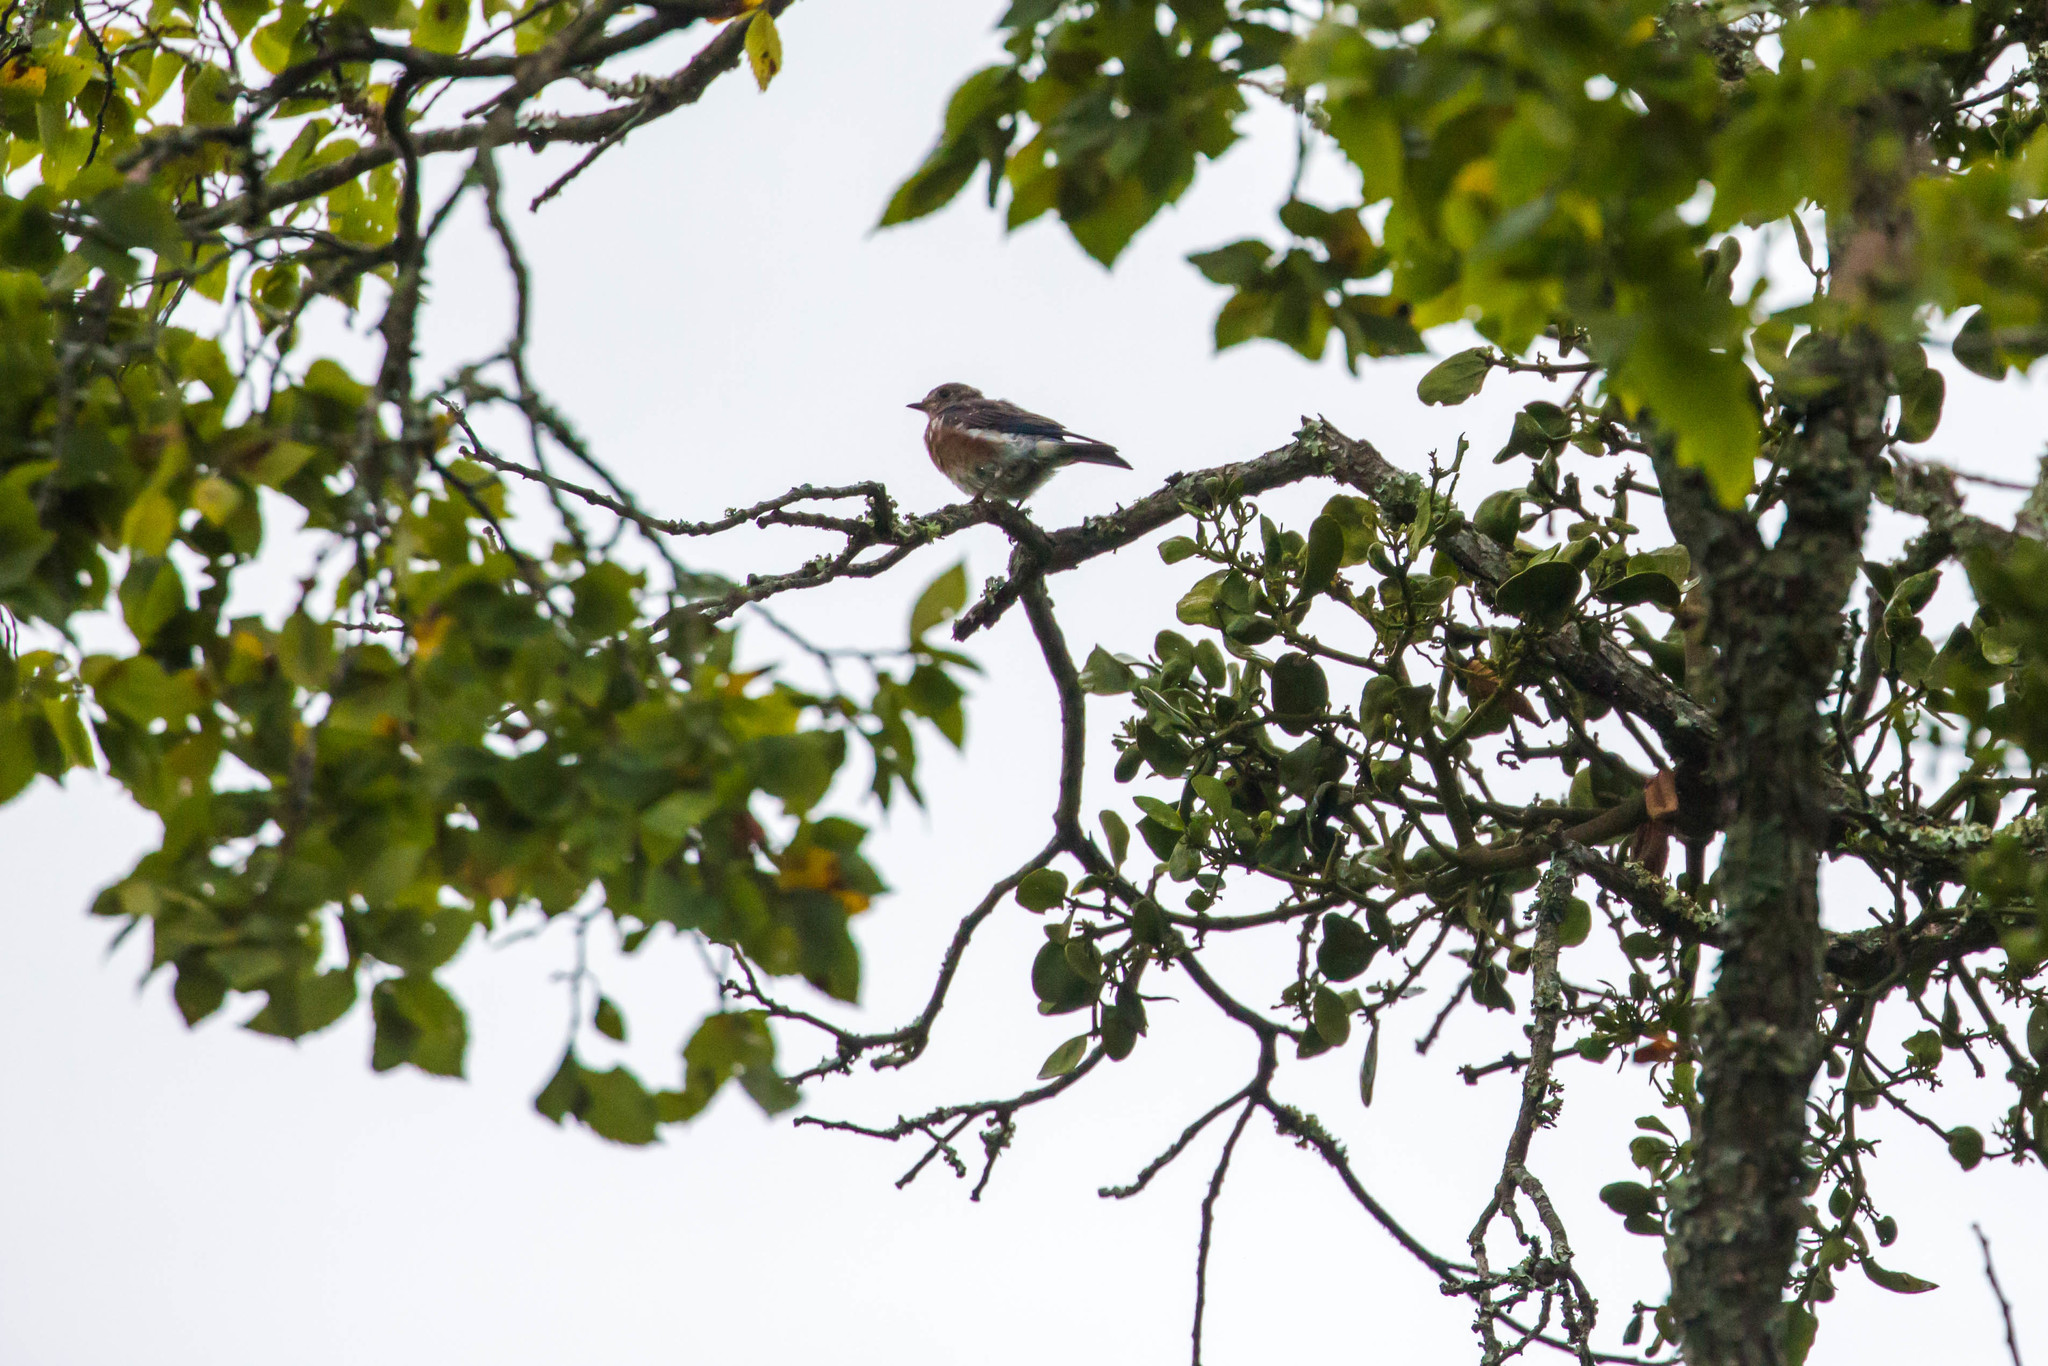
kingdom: Animalia
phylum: Chordata
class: Aves
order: Passeriformes
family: Turdidae
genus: Sialia
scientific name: Sialia sialis
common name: Eastern bluebird
